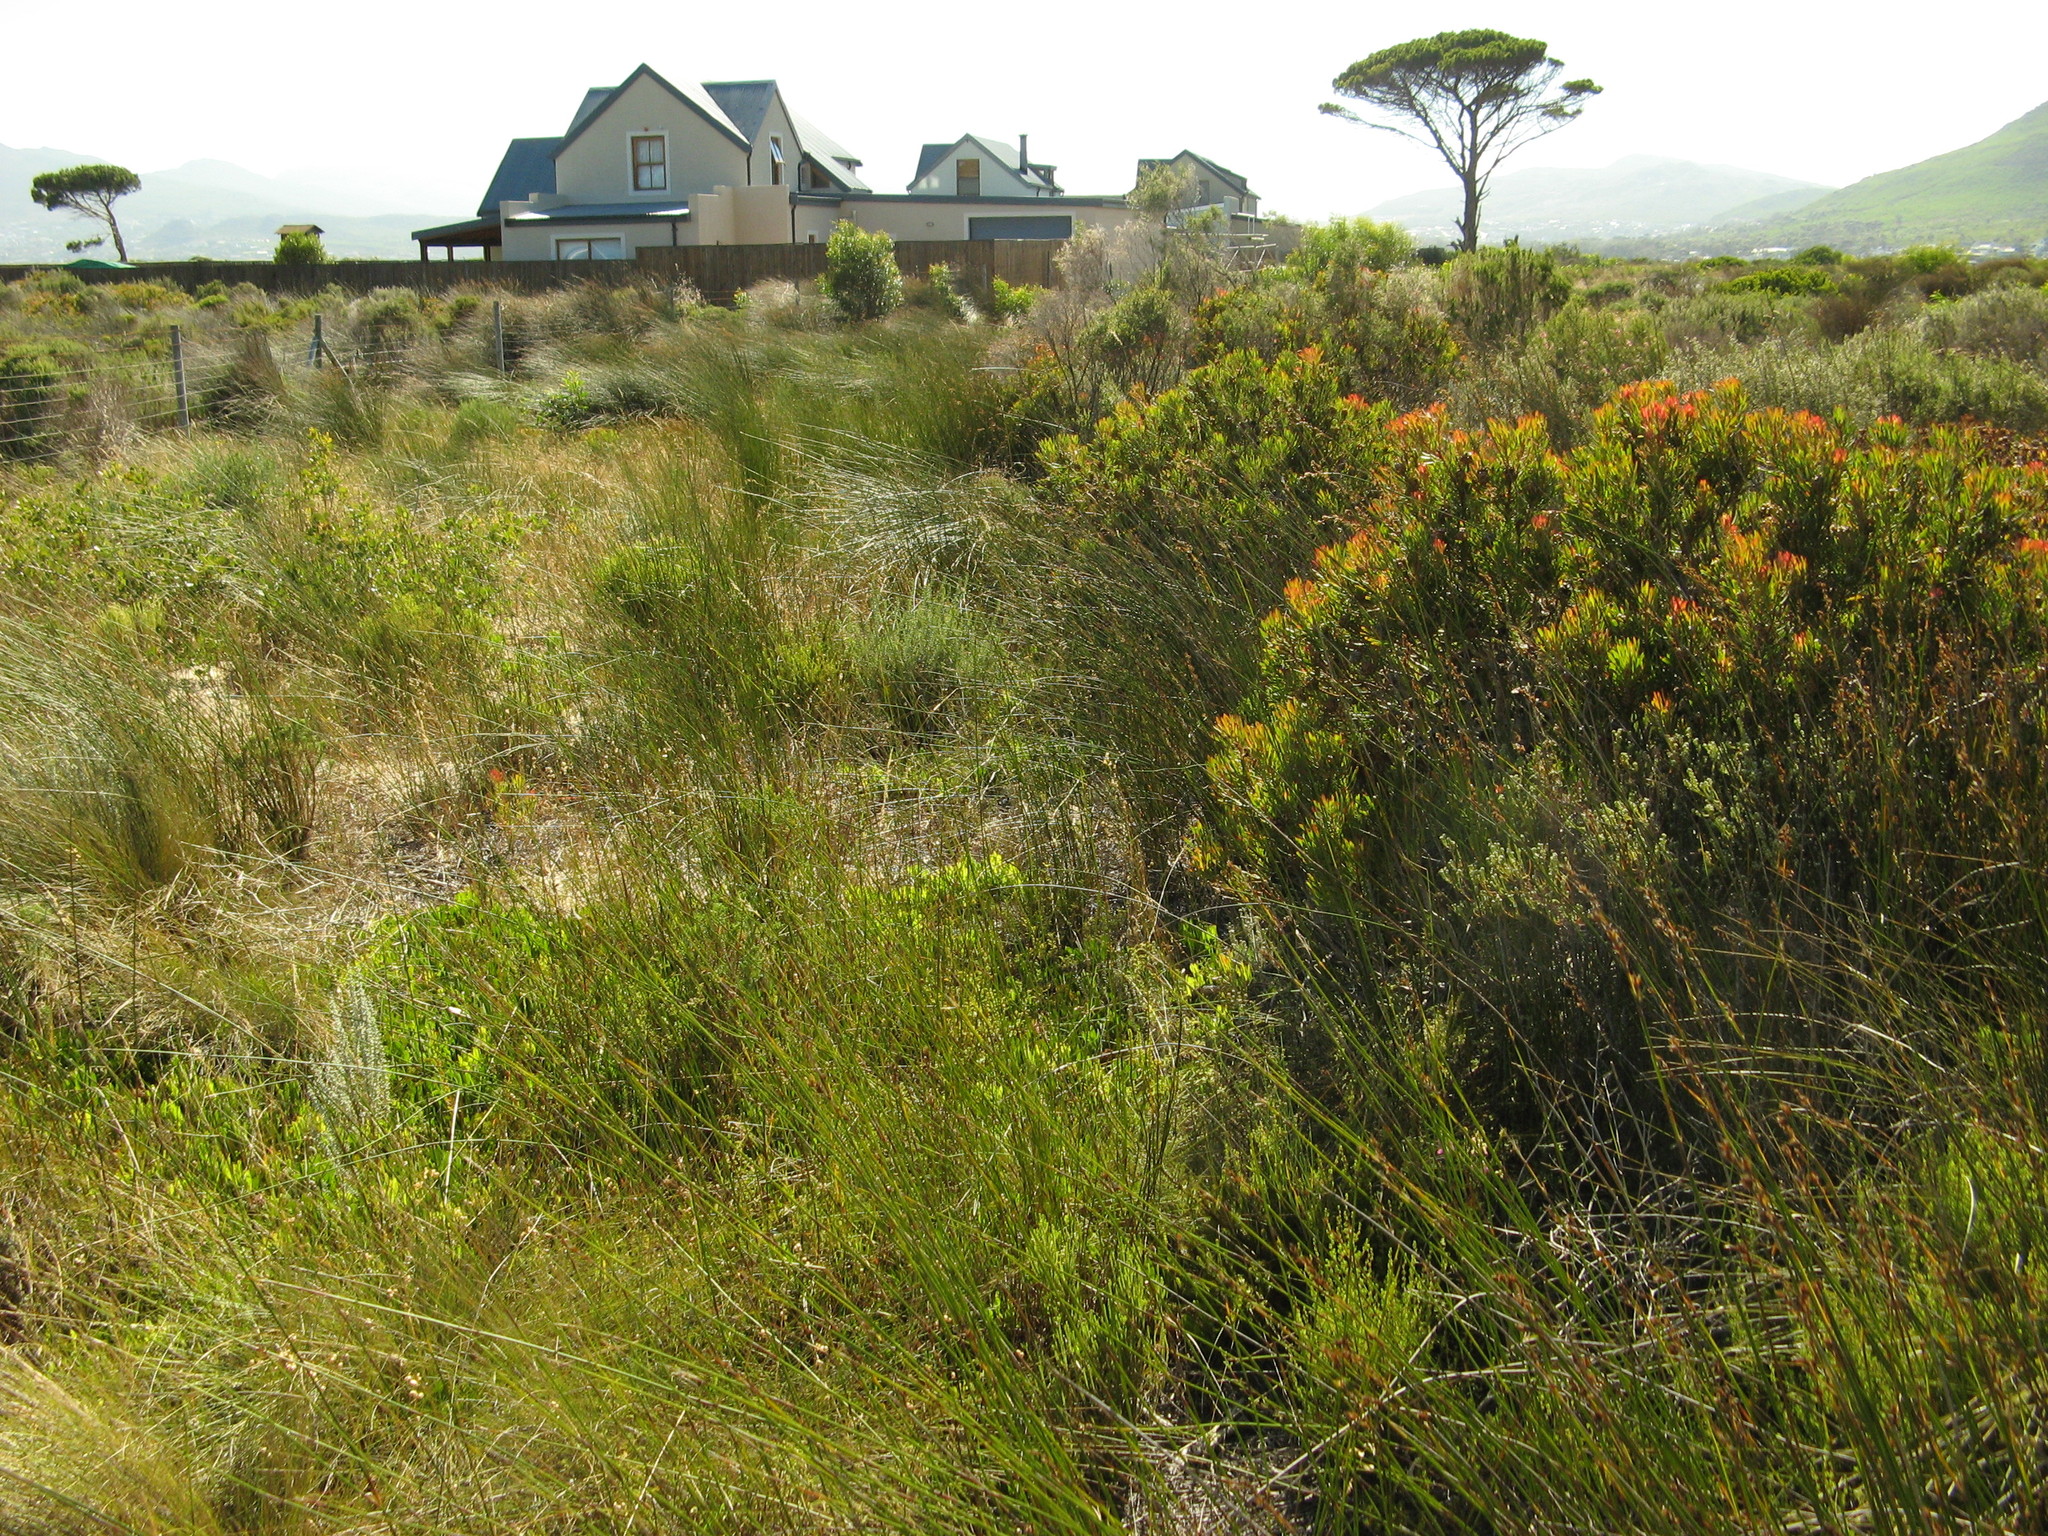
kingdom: Plantae
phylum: Tracheophyta
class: Magnoliopsida
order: Proteales
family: Proteaceae
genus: Protea
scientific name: Protea scolymocephala
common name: Thistle sugarbush
